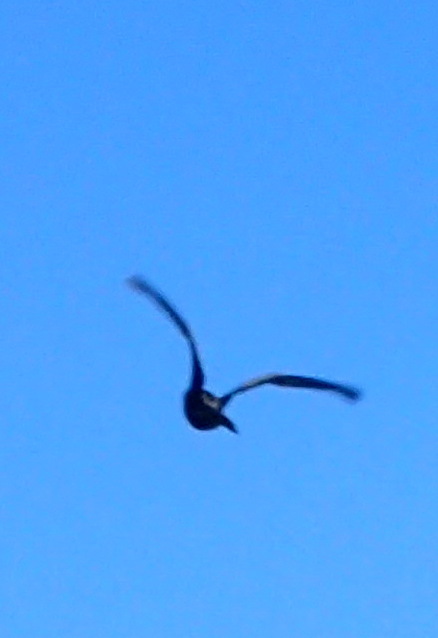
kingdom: Animalia
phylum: Chordata
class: Aves
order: Suliformes
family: Anhingidae
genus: Anhinga
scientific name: Anhinga anhinga
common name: Anhinga
